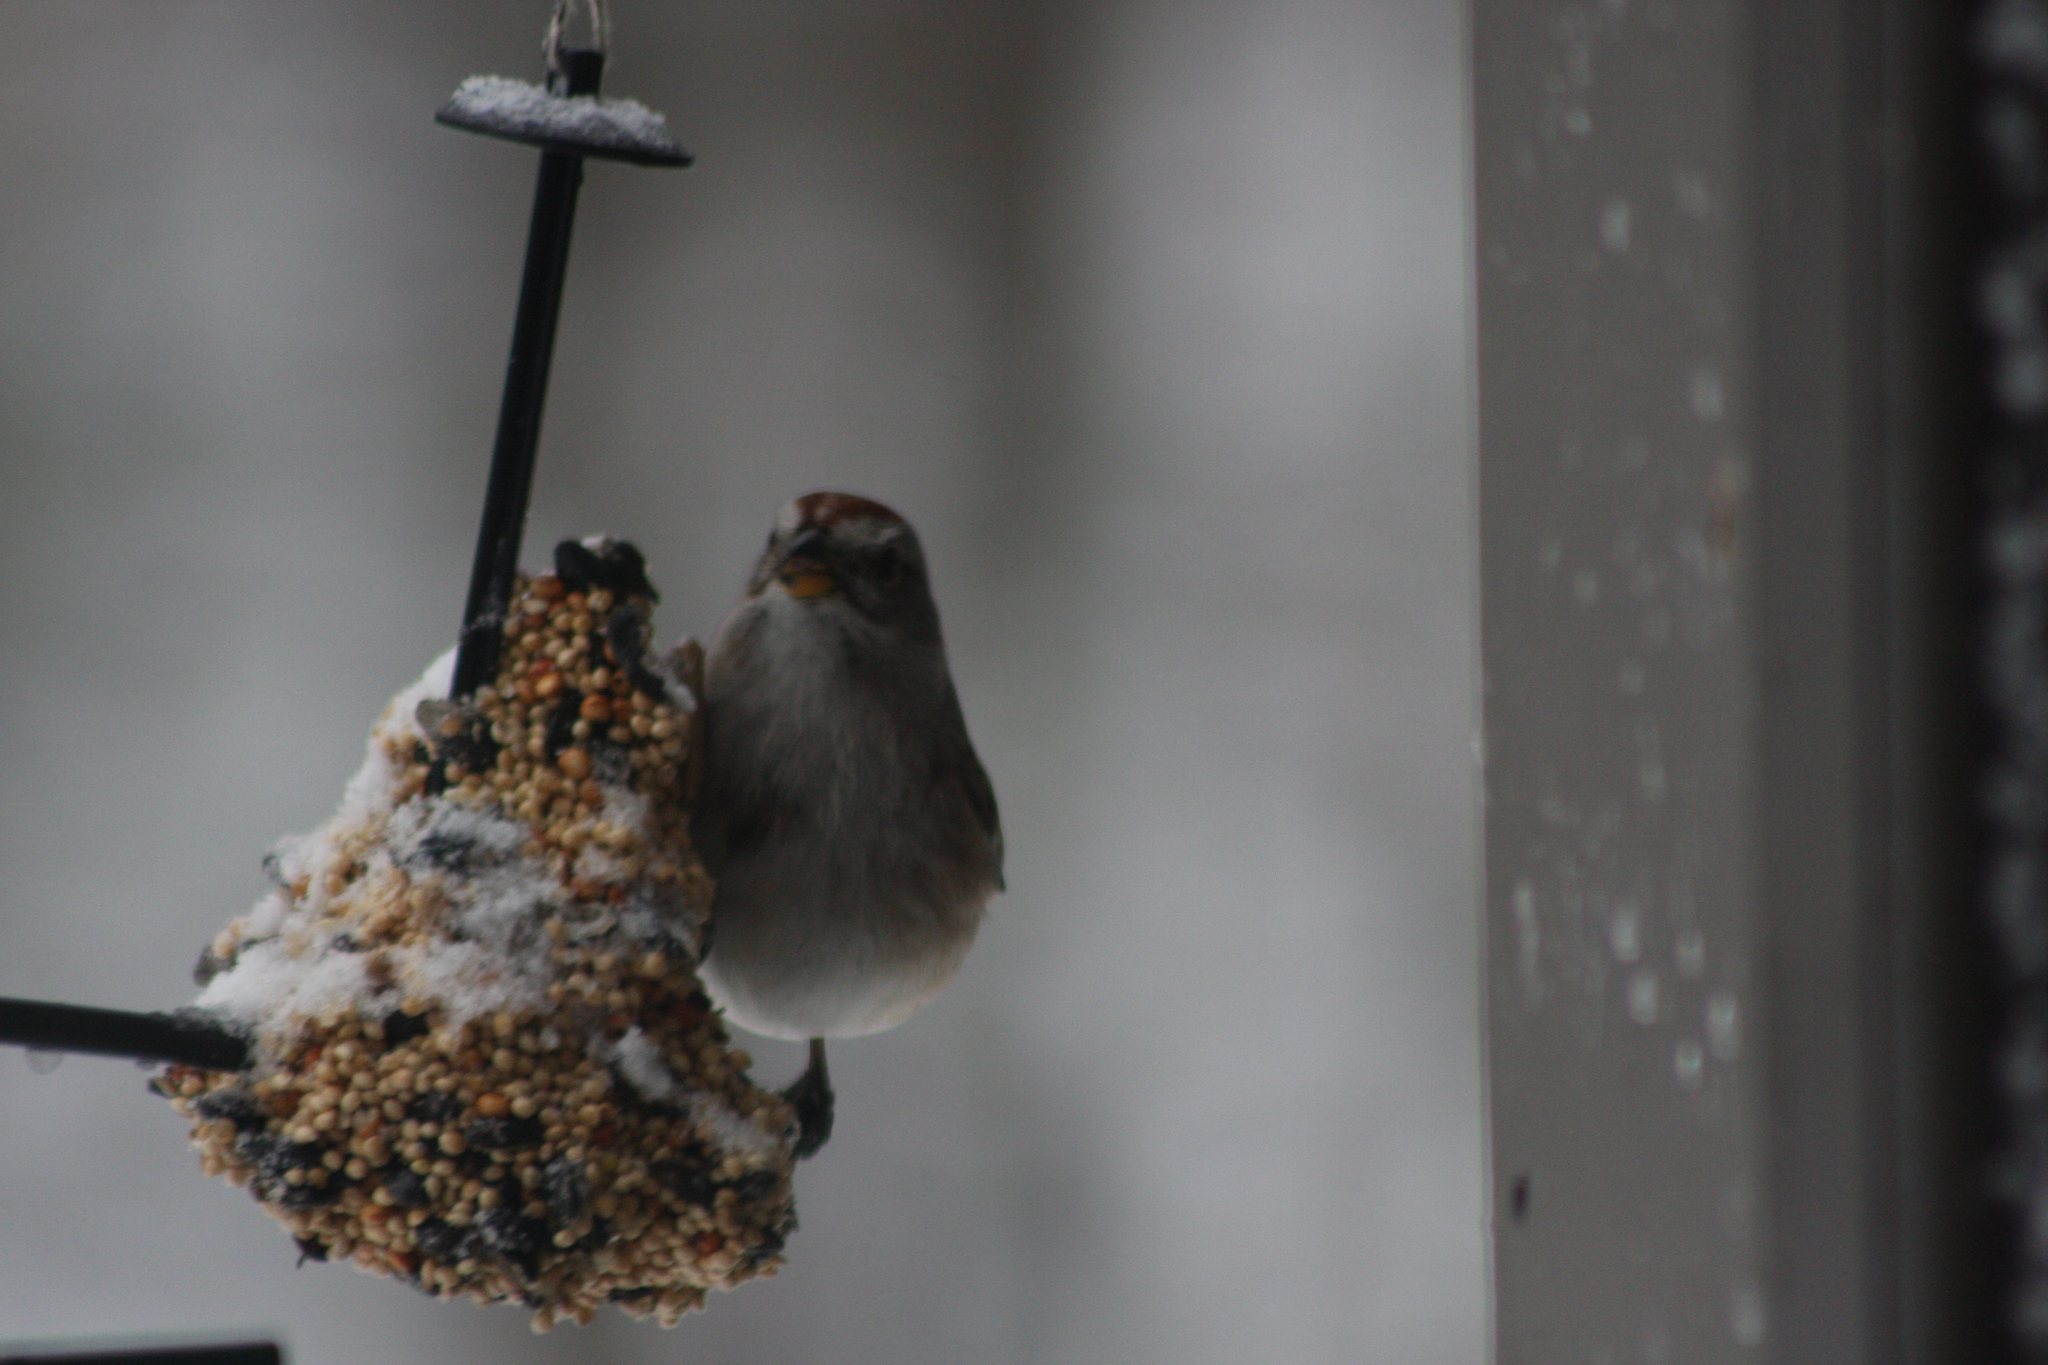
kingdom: Animalia
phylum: Chordata
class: Aves
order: Passeriformes
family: Passerellidae
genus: Spizelloides
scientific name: Spizelloides arborea
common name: American tree sparrow
